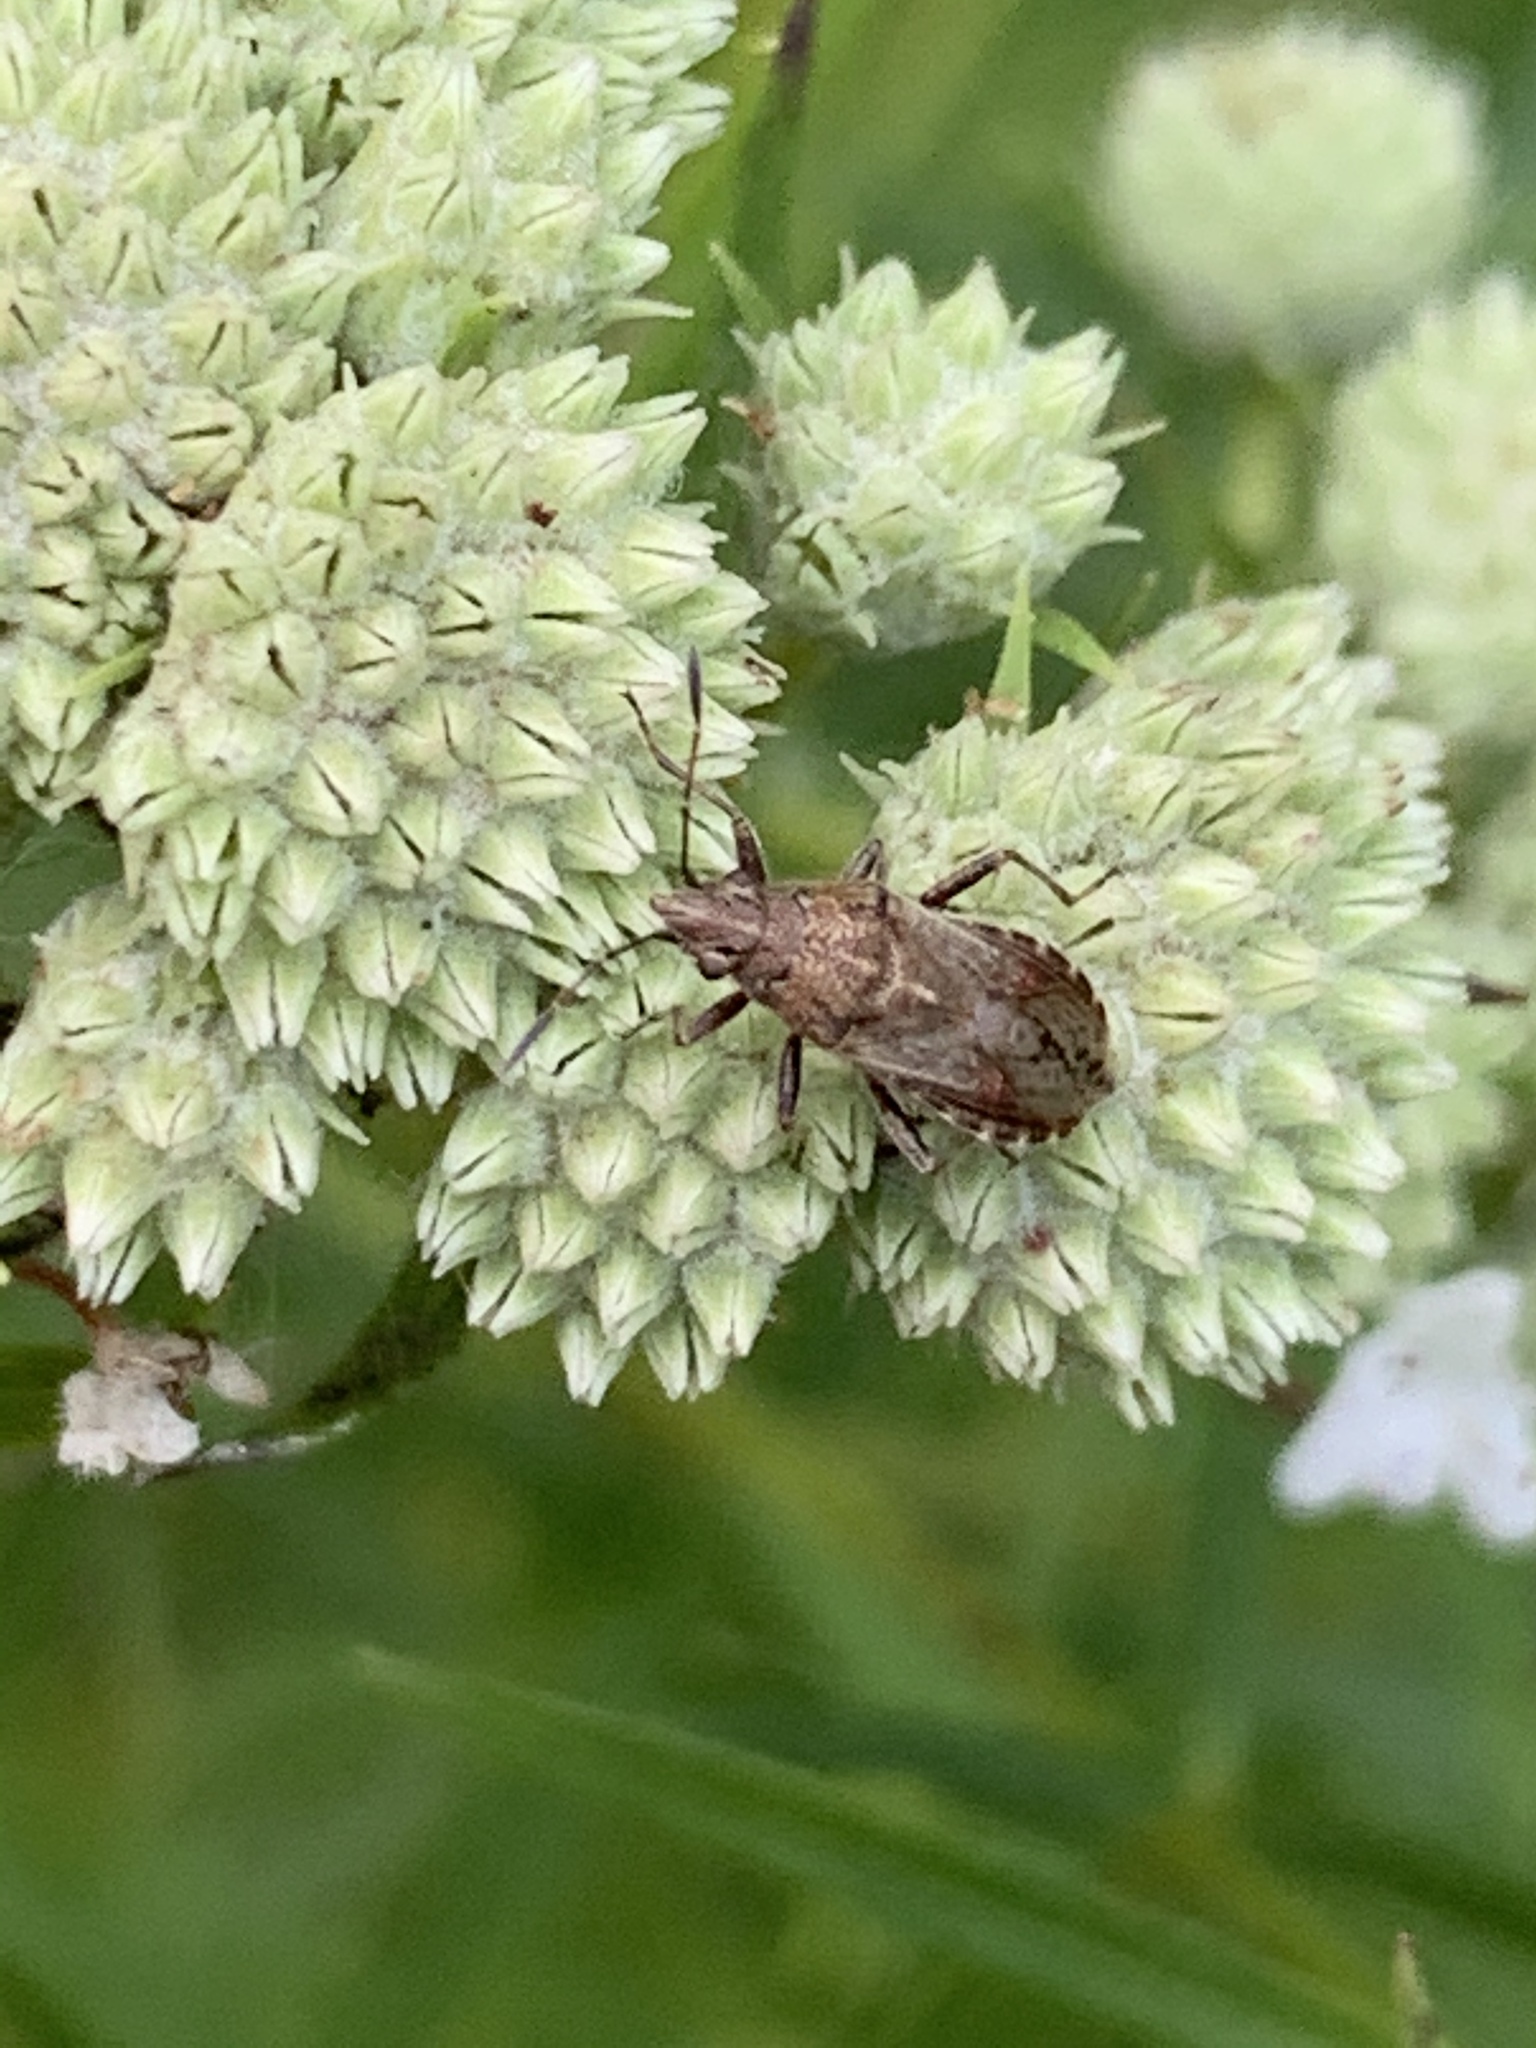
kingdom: Animalia
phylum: Arthropoda
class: Insecta
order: Hemiptera
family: Lygaeidae
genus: Neortholomus
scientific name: Neortholomus scolopax
